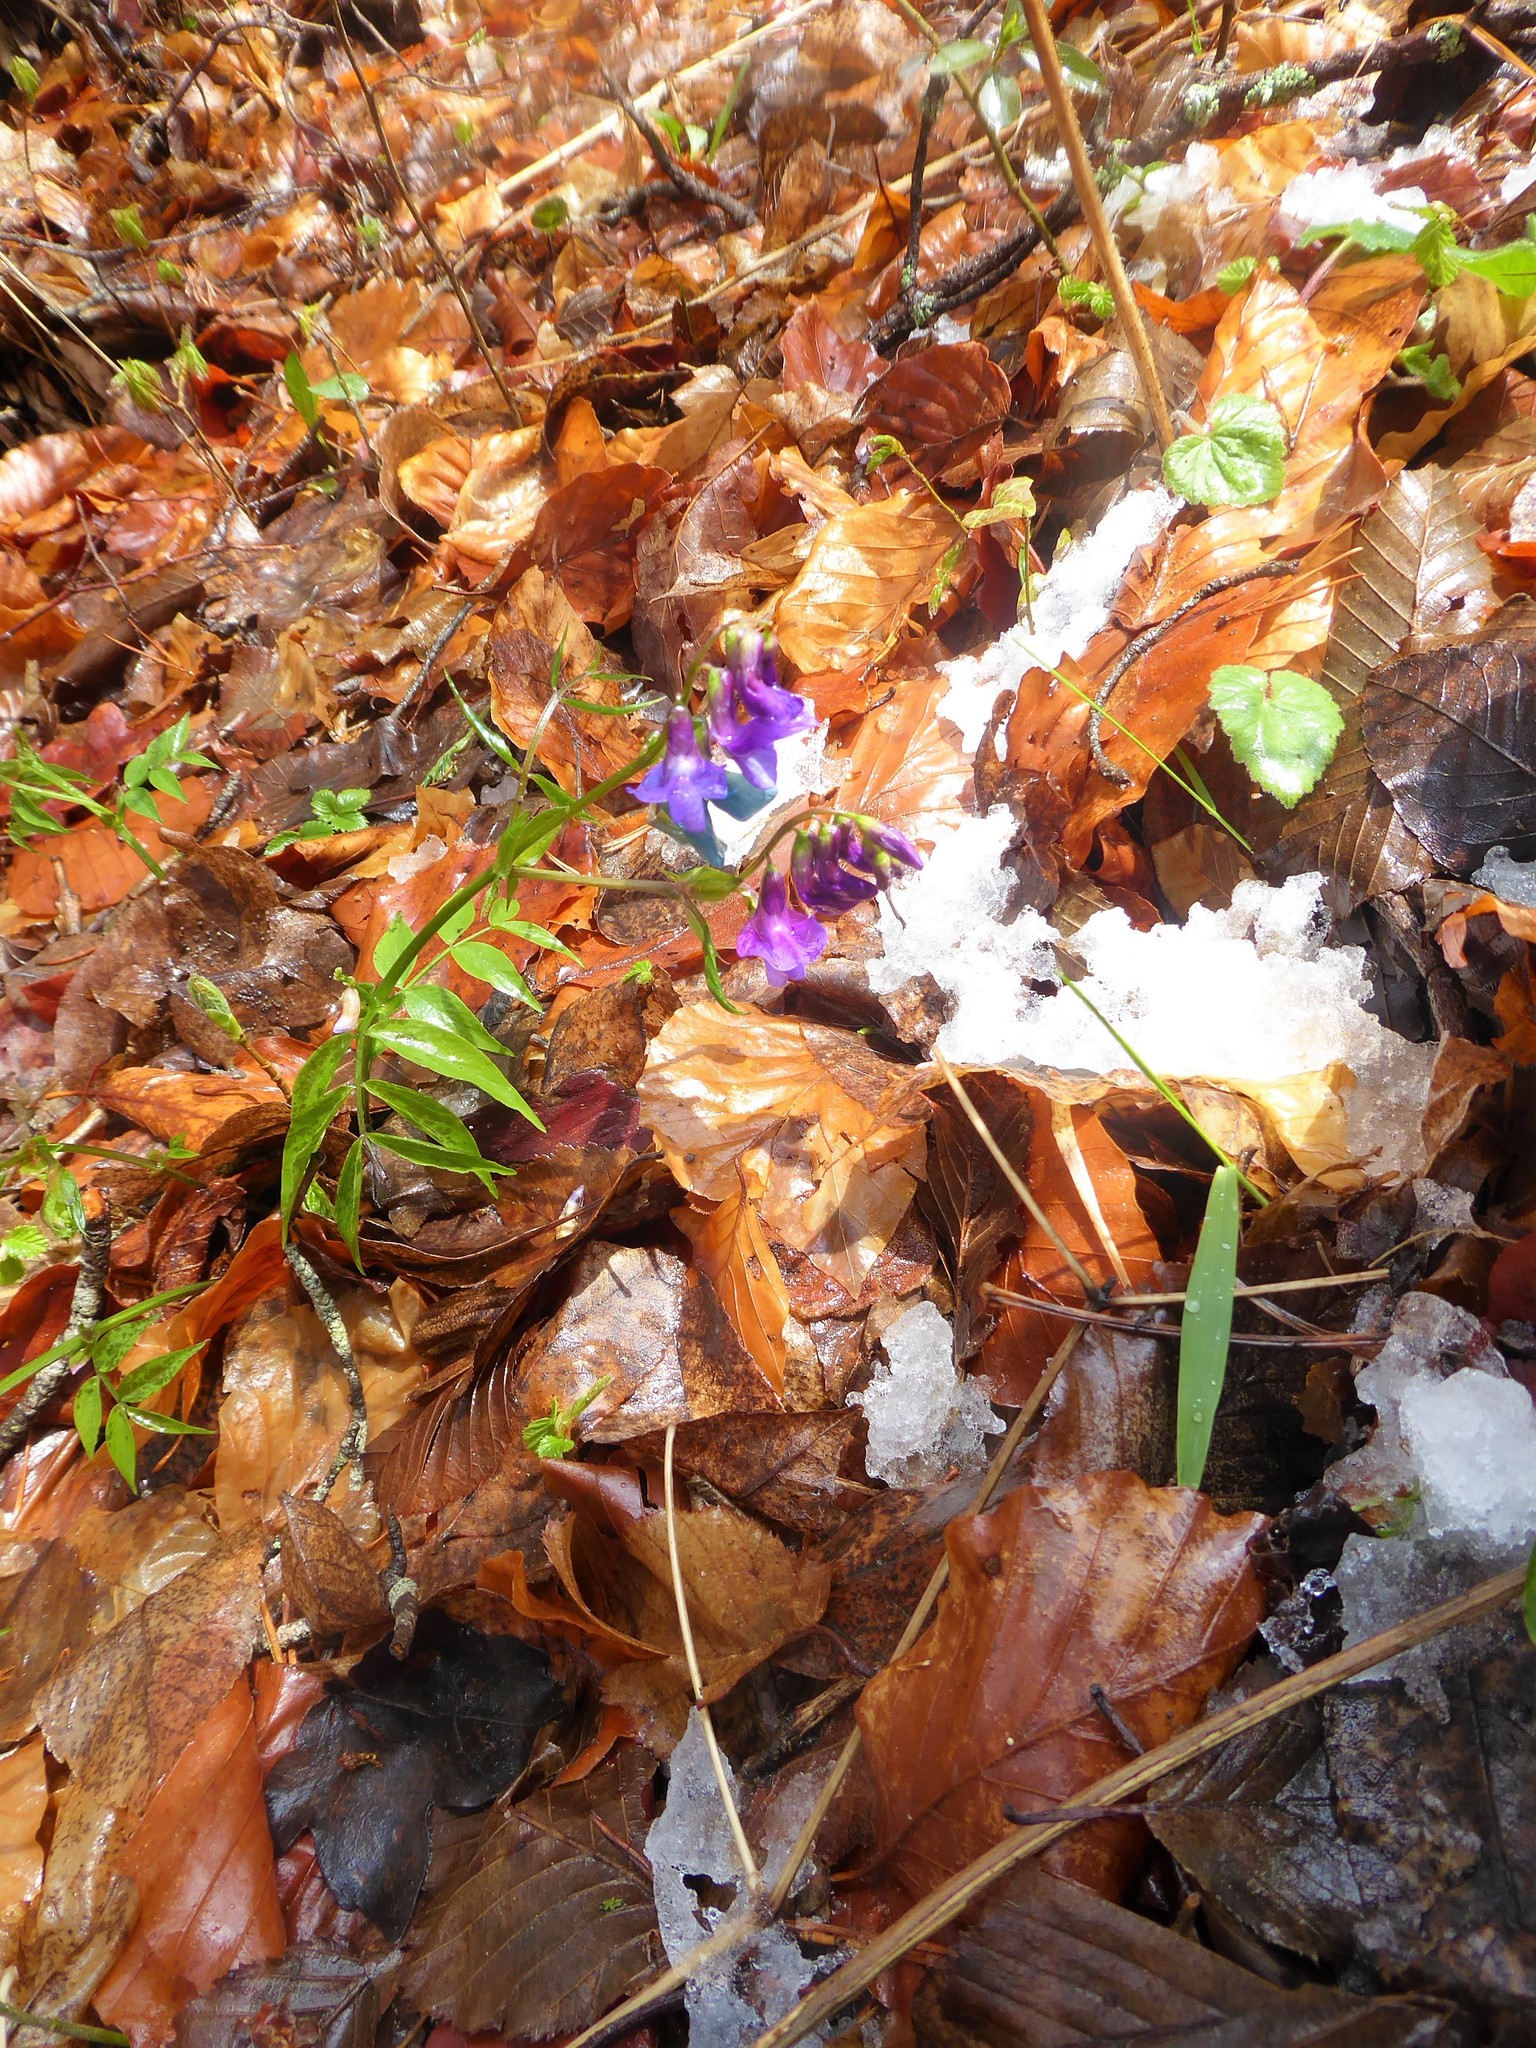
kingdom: Plantae
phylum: Tracheophyta
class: Magnoliopsida
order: Fabales
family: Fabaceae
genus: Lathyrus
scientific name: Lathyrus vernus
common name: Spring pea
